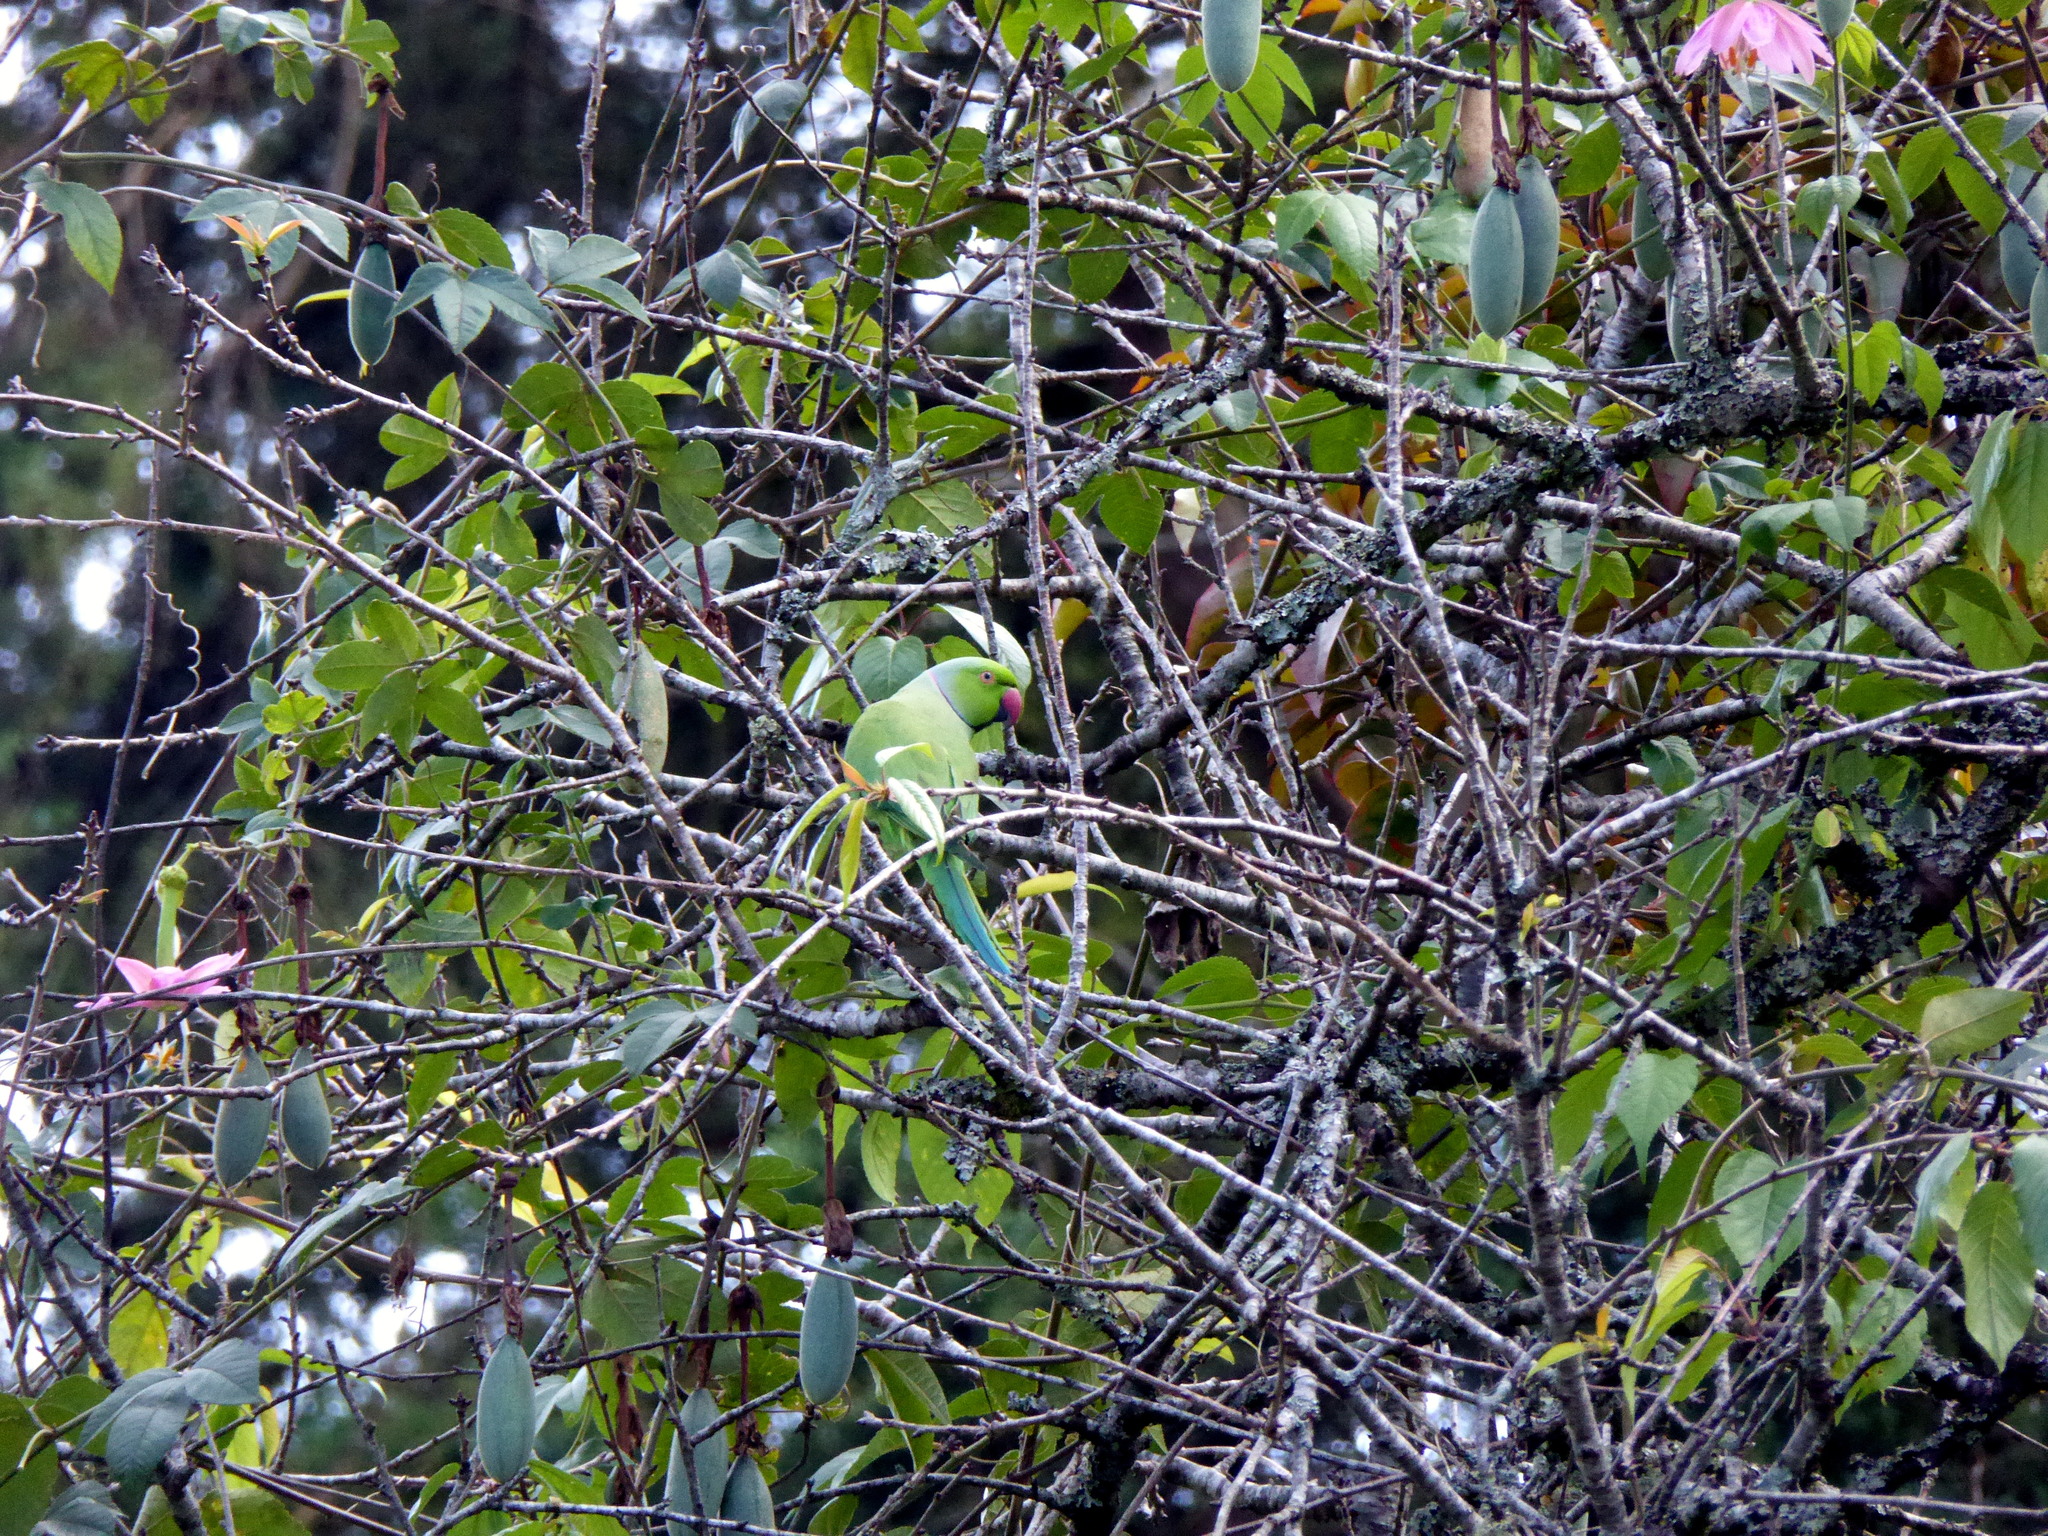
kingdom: Animalia
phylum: Chordata
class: Aves
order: Psittaciformes
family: Psittacidae
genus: Psittacula
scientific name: Psittacula krameri
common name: Rose-ringed parakeet
